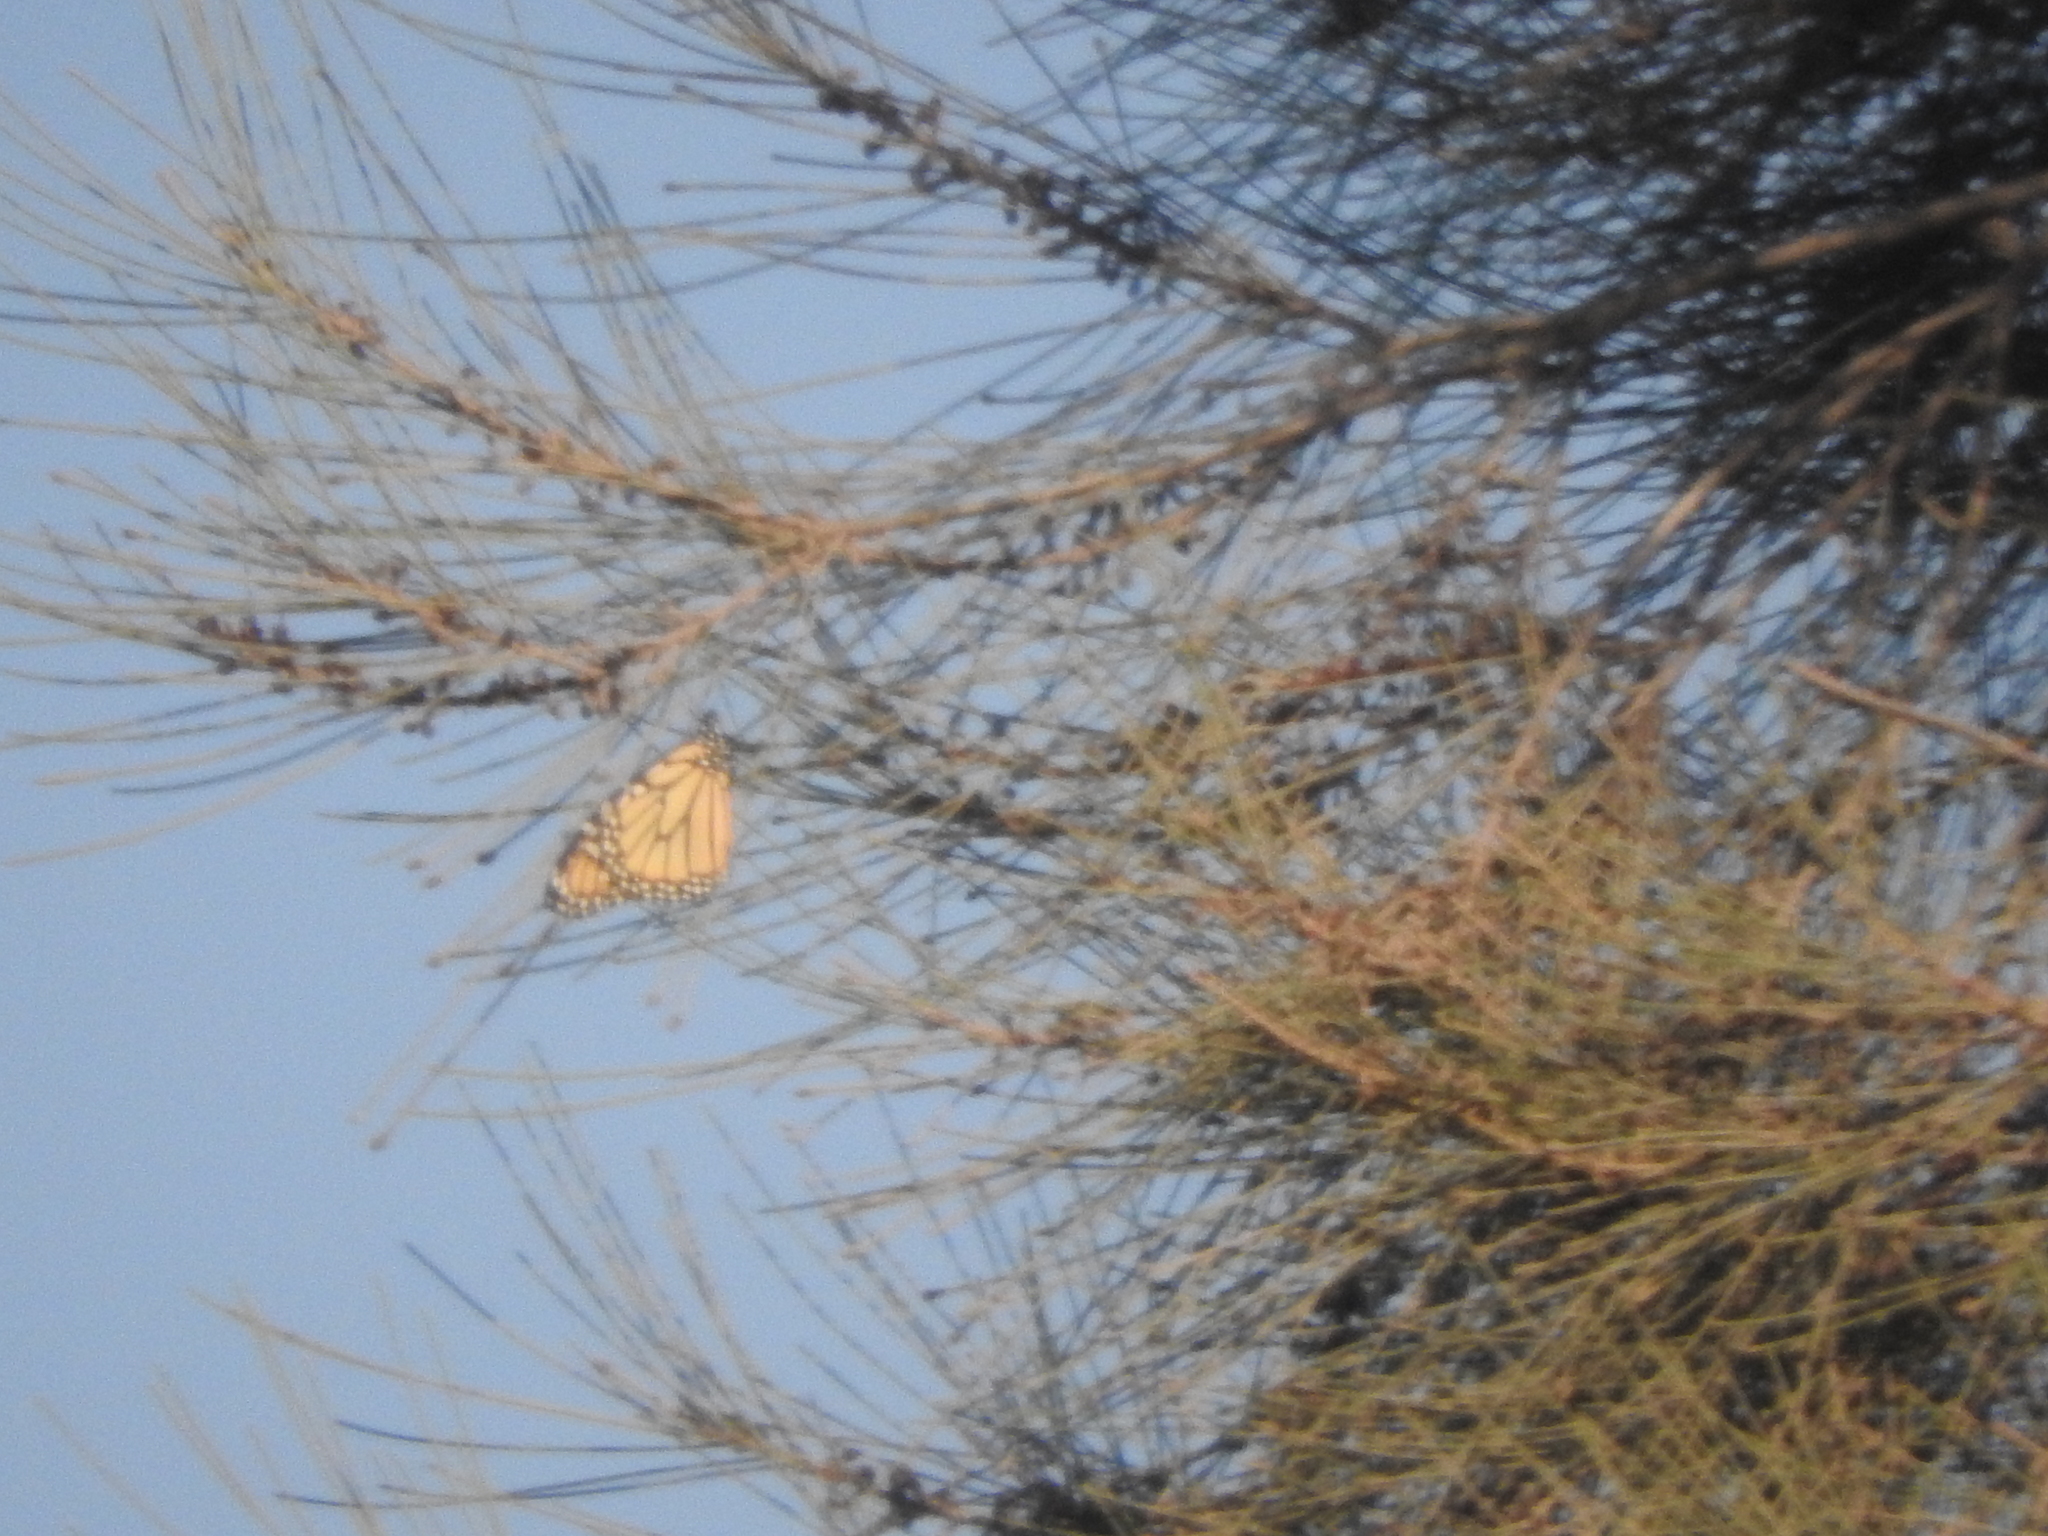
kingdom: Animalia
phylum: Arthropoda
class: Insecta
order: Lepidoptera
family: Nymphalidae
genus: Danaus
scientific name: Danaus plexippus
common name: Monarch
